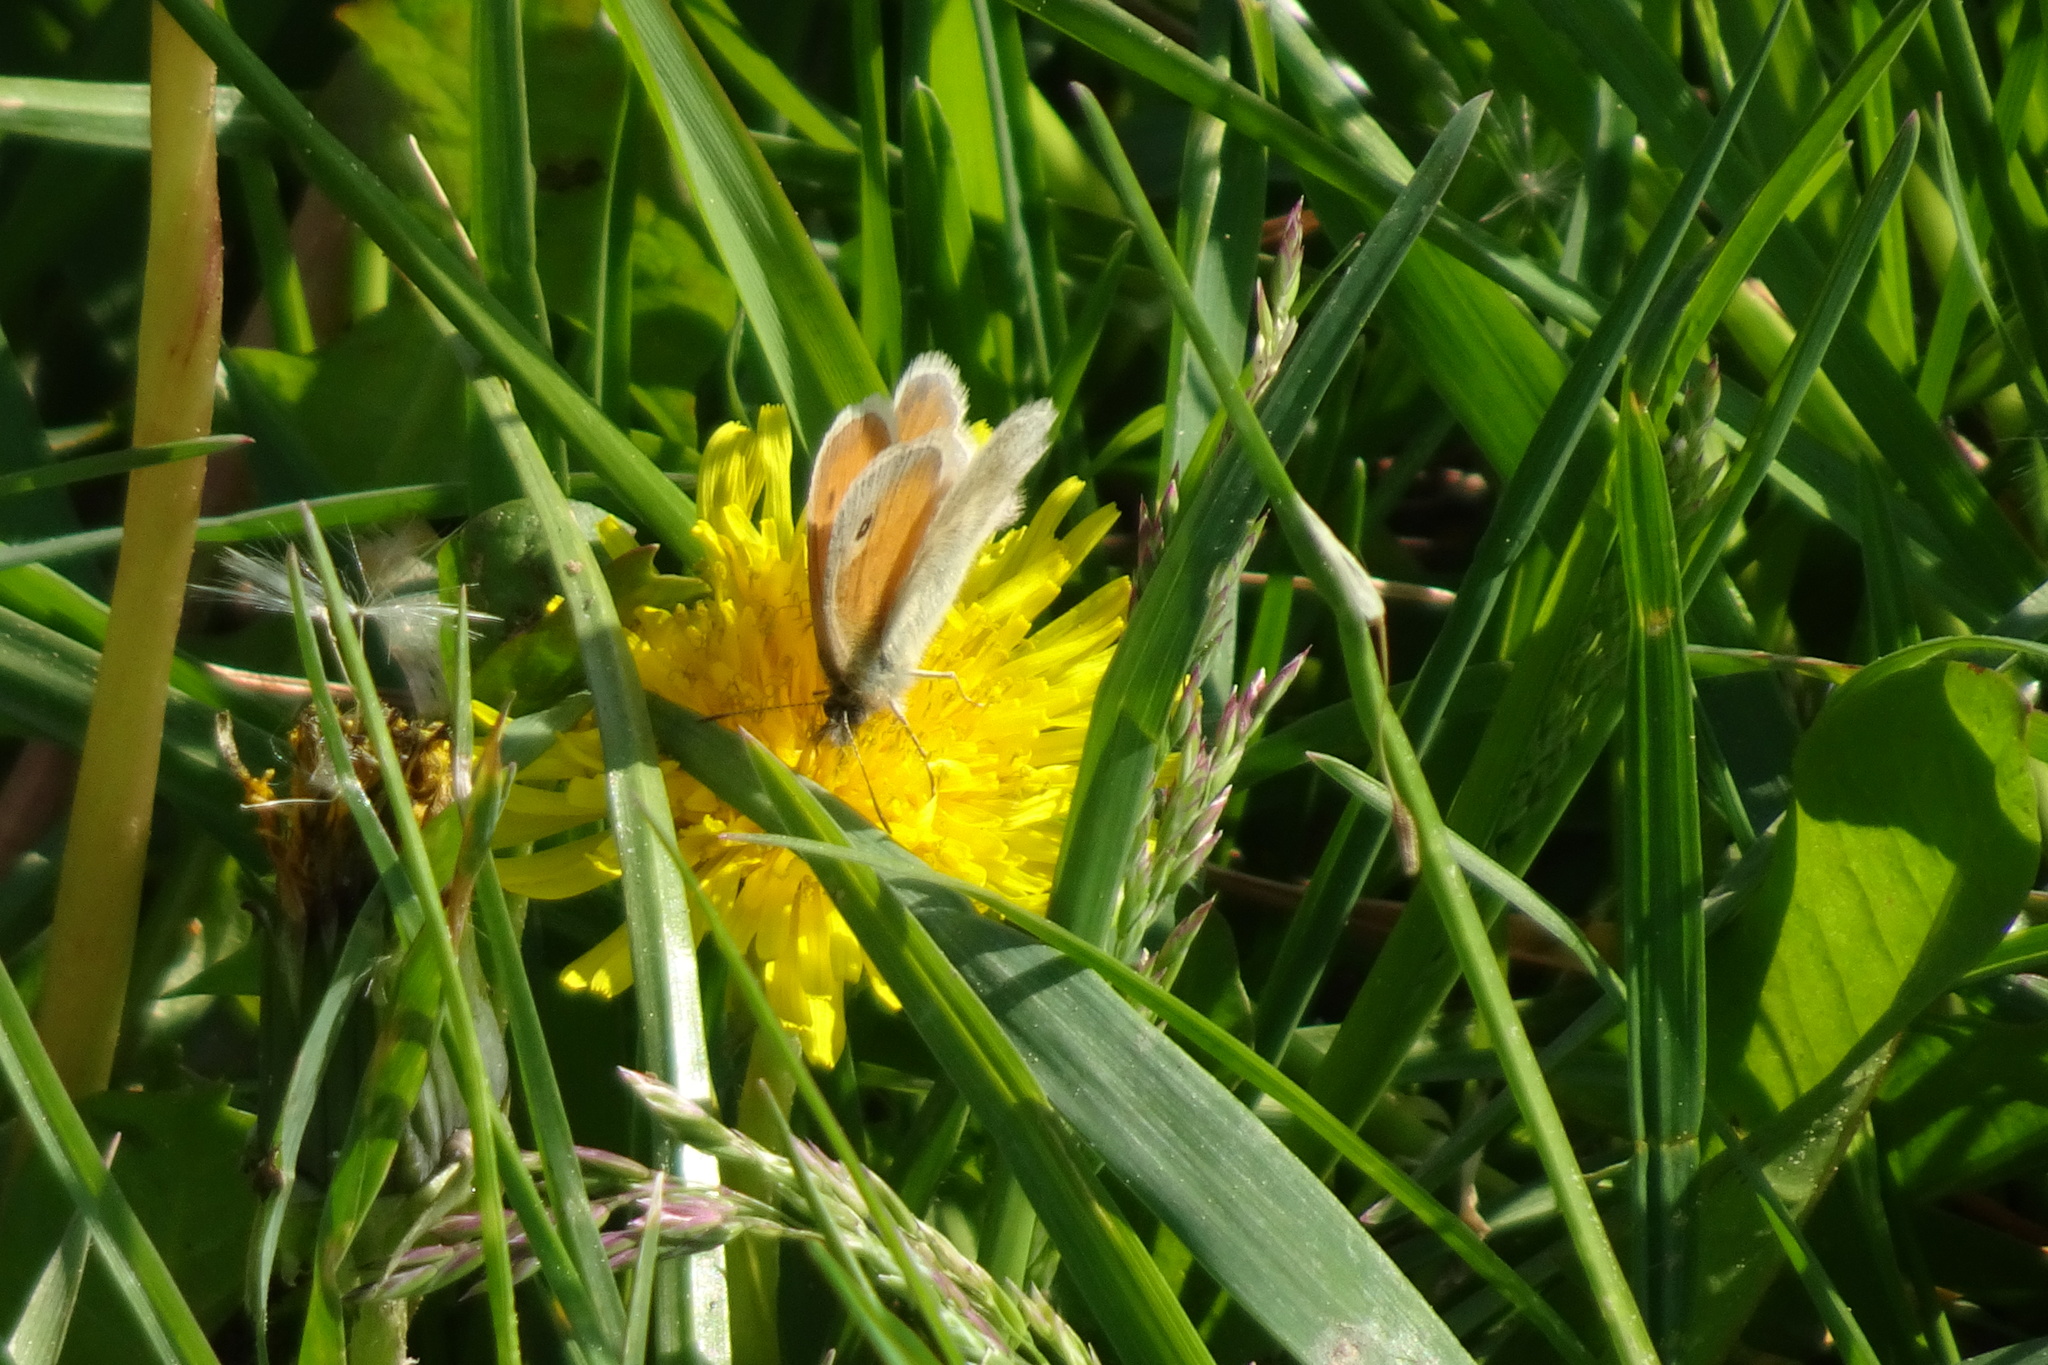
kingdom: Animalia
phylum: Arthropoda
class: Insecta
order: Lepidoptera
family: Nymphalidae
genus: Coenonympha
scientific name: Coenonympha pamphilus
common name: Small heath
